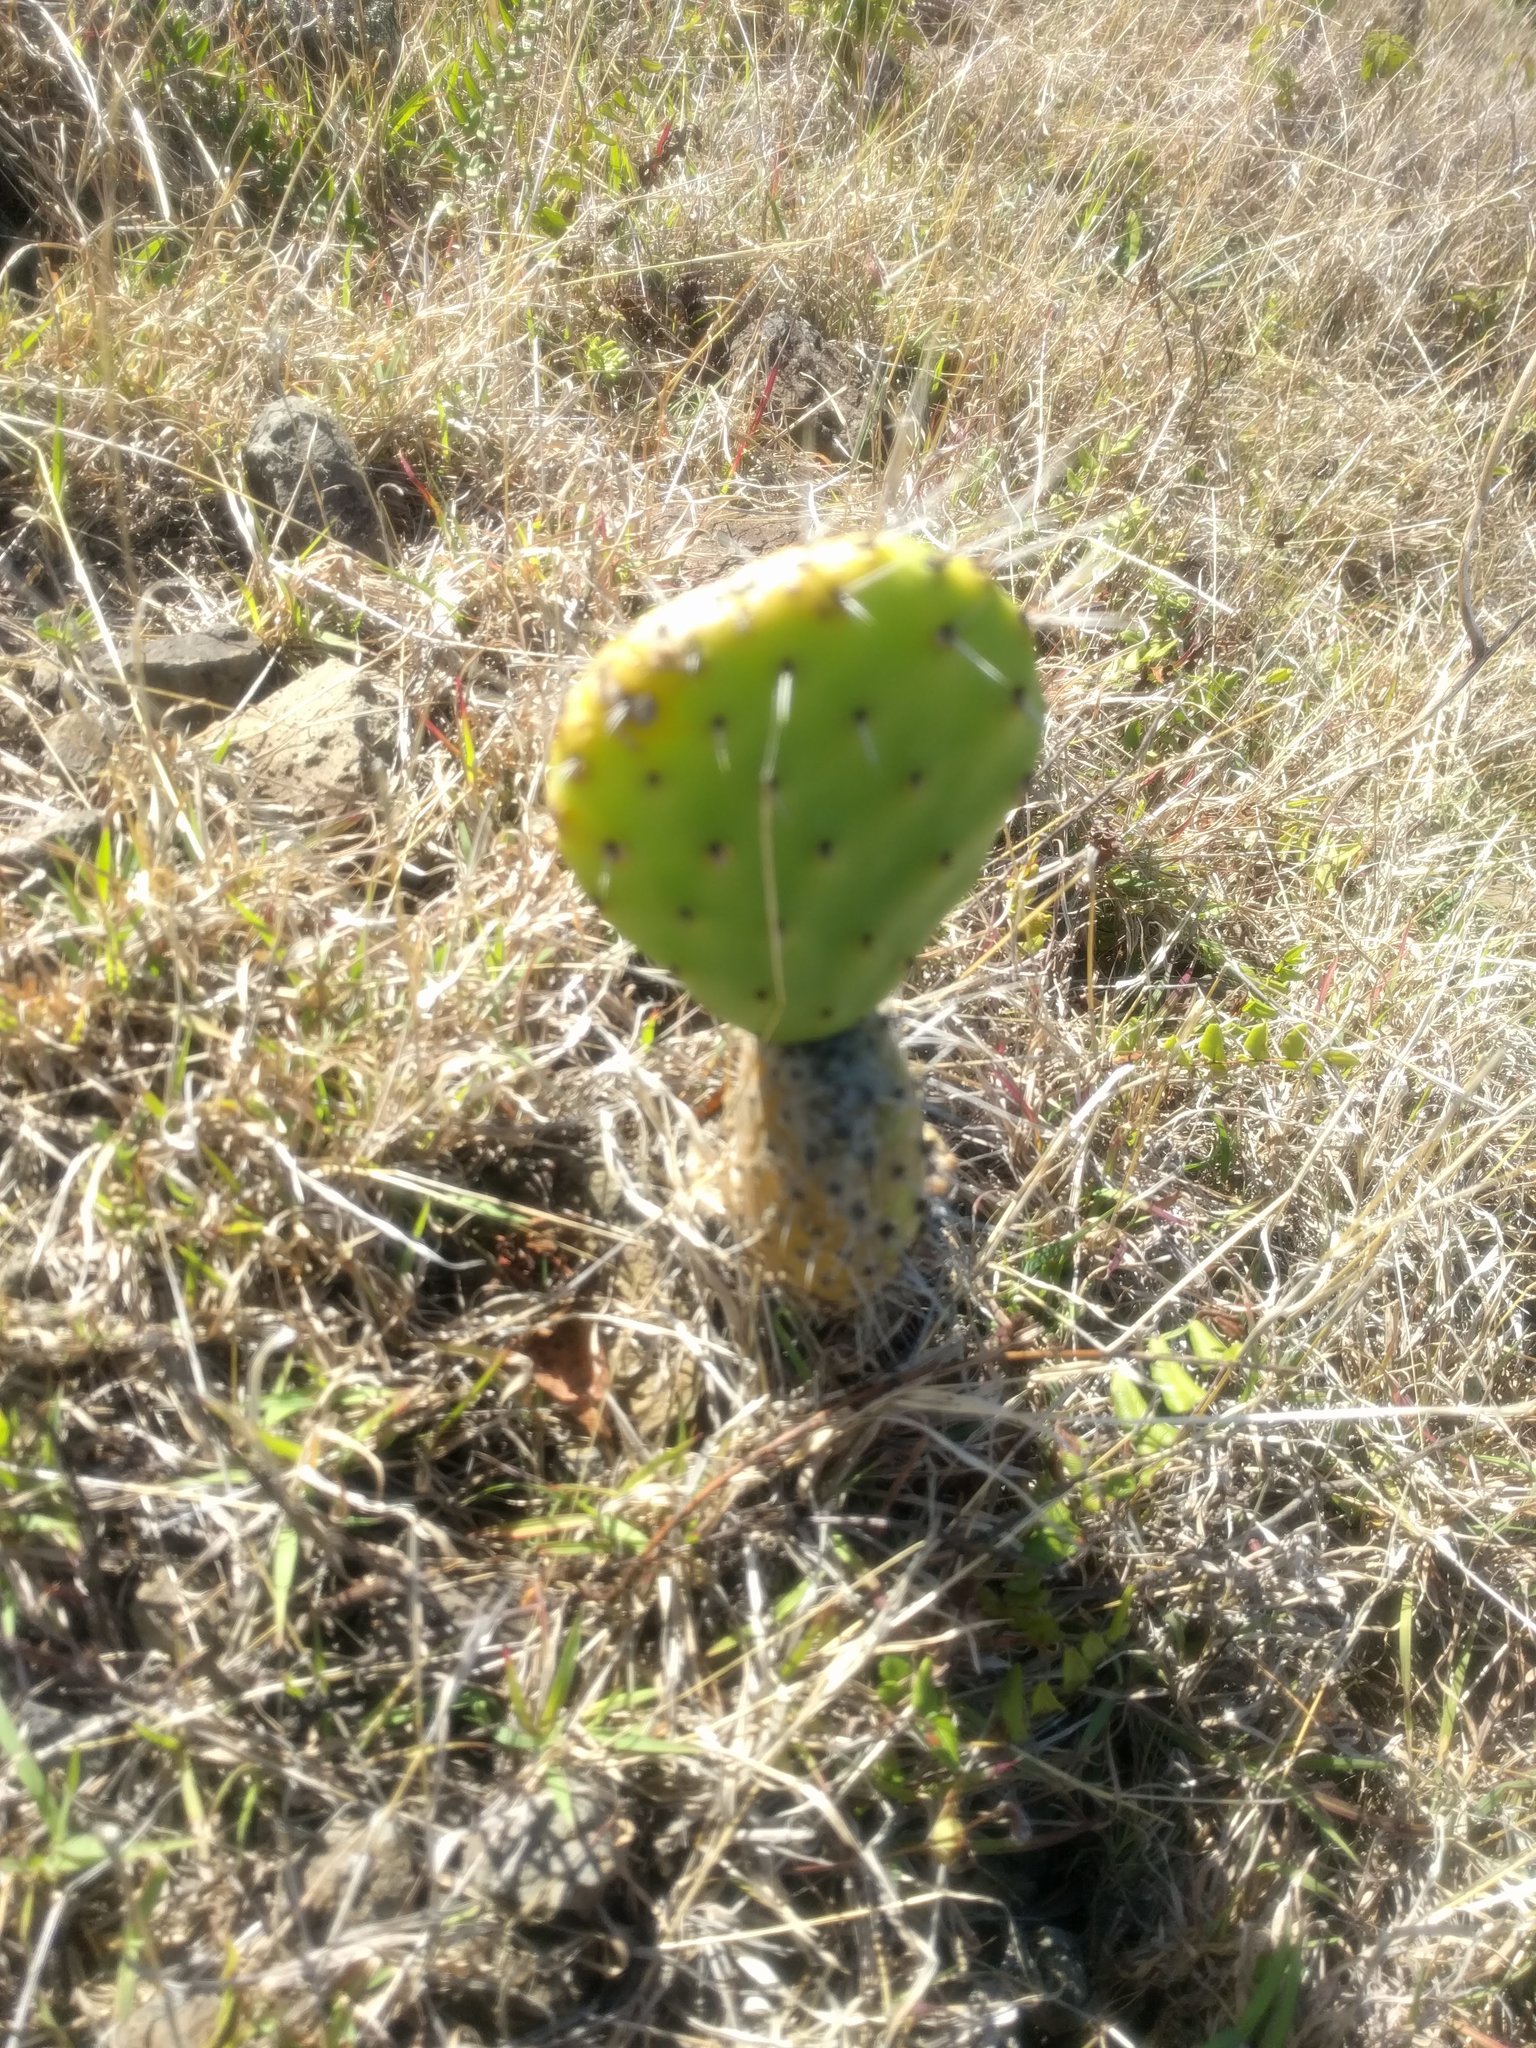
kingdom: Plantae
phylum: Tracheophyta
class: Magnoliopsida
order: Caryophyllales
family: Cactaceae
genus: Opuntia
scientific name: Opuntia ficus-indica
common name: Barbary fig
